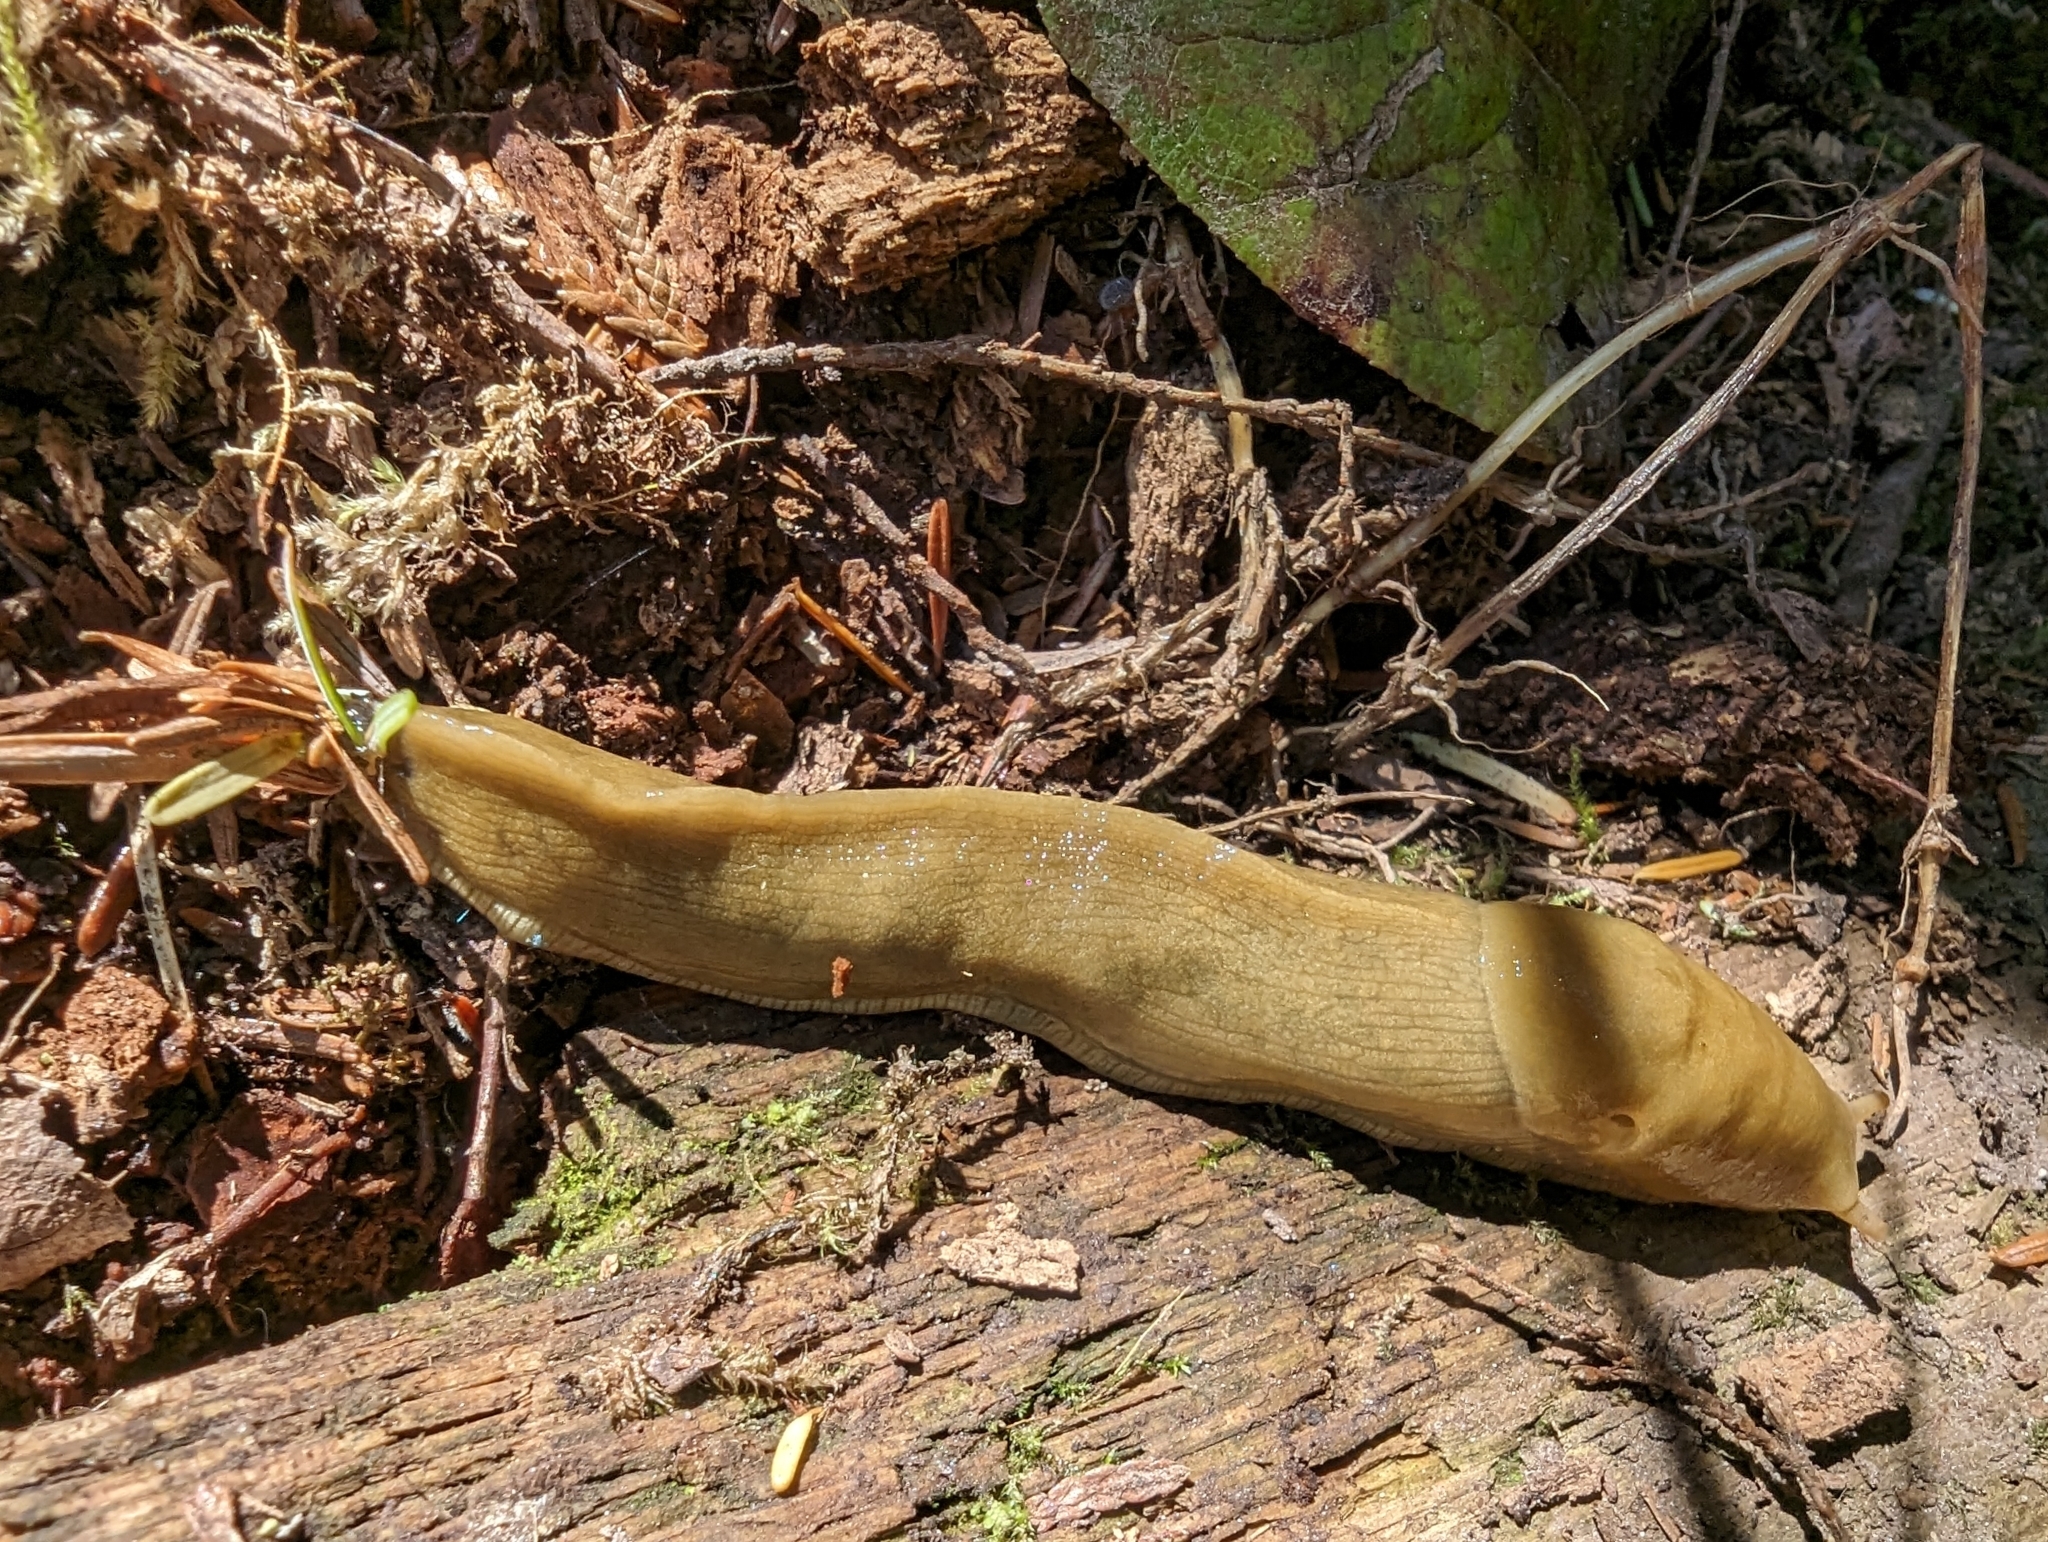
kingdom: Animalia
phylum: Mollusca
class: Gastropoda
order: Stylommatophora
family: Ariolimacidae
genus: Ariolimax
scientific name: Ariolimax columbianus
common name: Pacific banana slug
